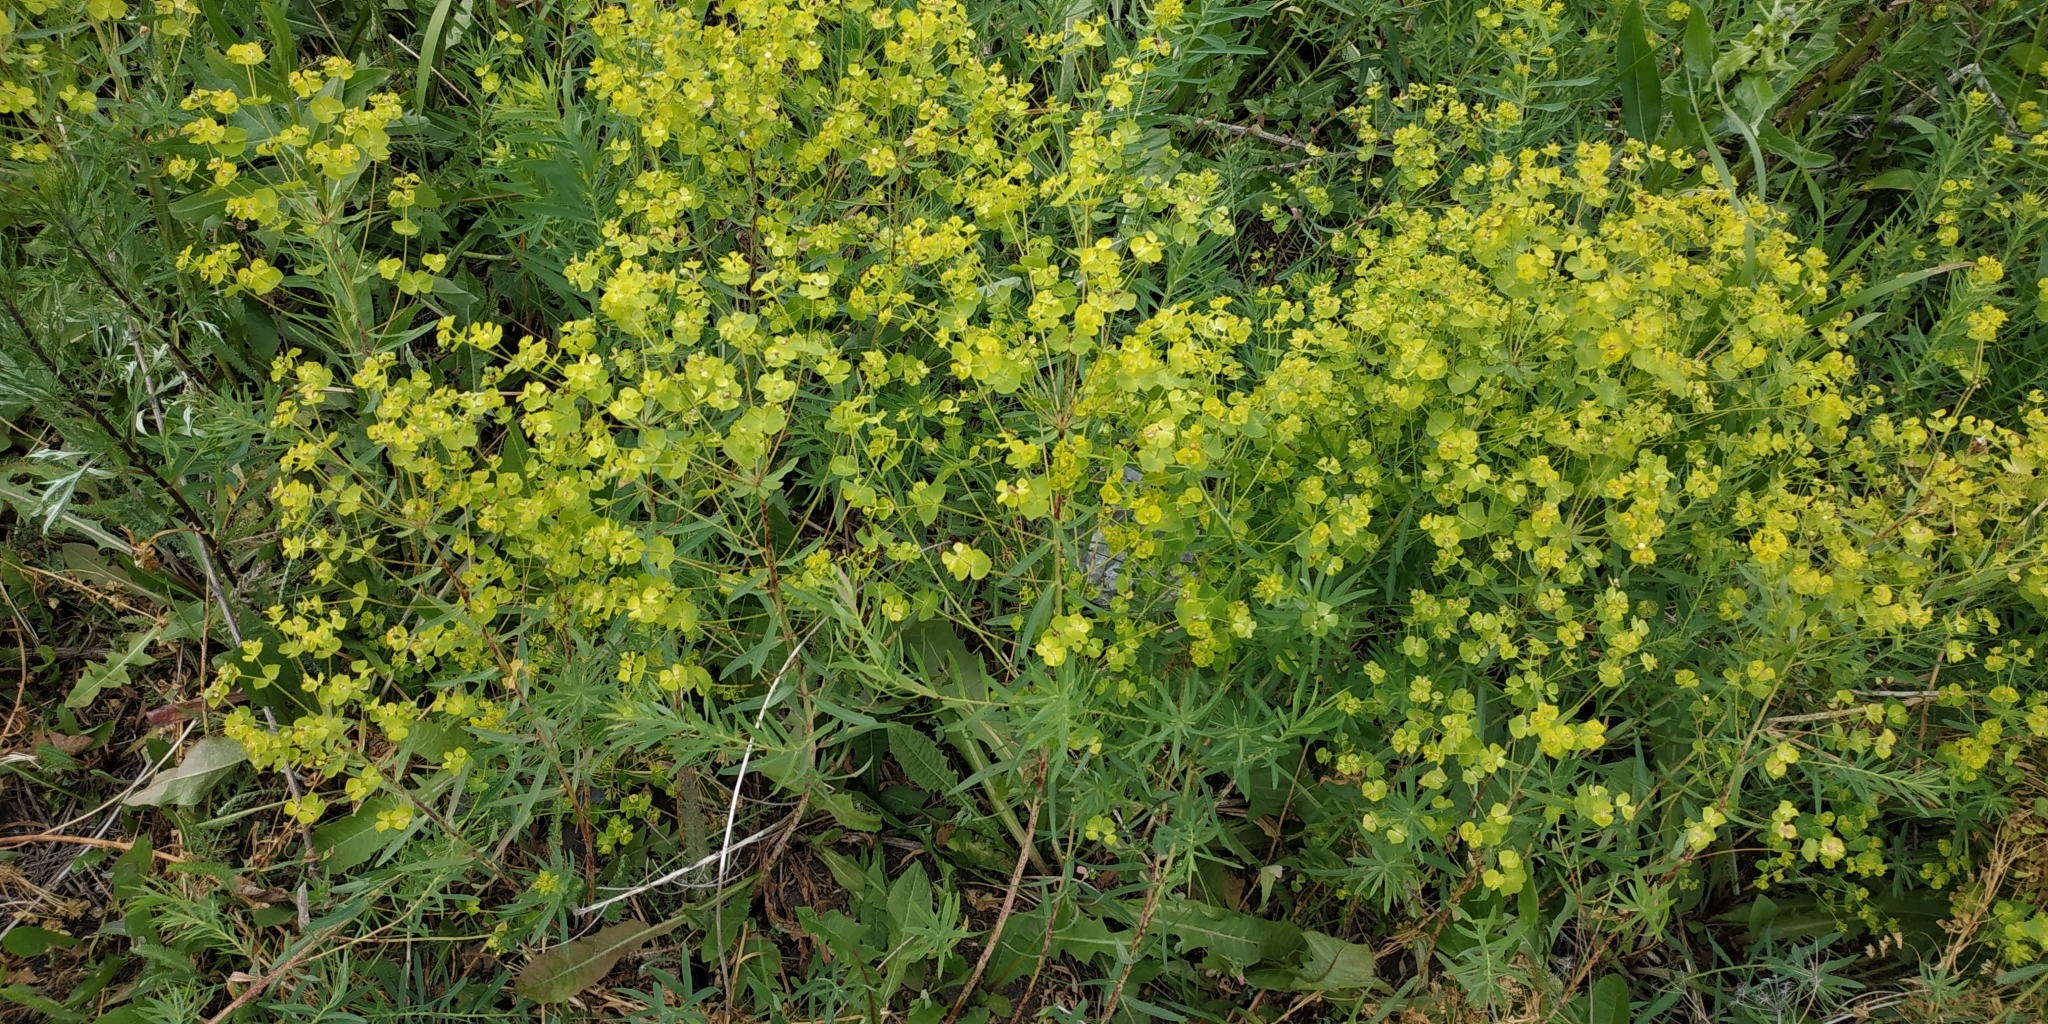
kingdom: Plantae
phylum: Tracheophyta
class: Magnoliopsida
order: Malpighiales
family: Euphorbiaceae
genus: Euphorbia
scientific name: Euphorbia virgata
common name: Leafy spurge
